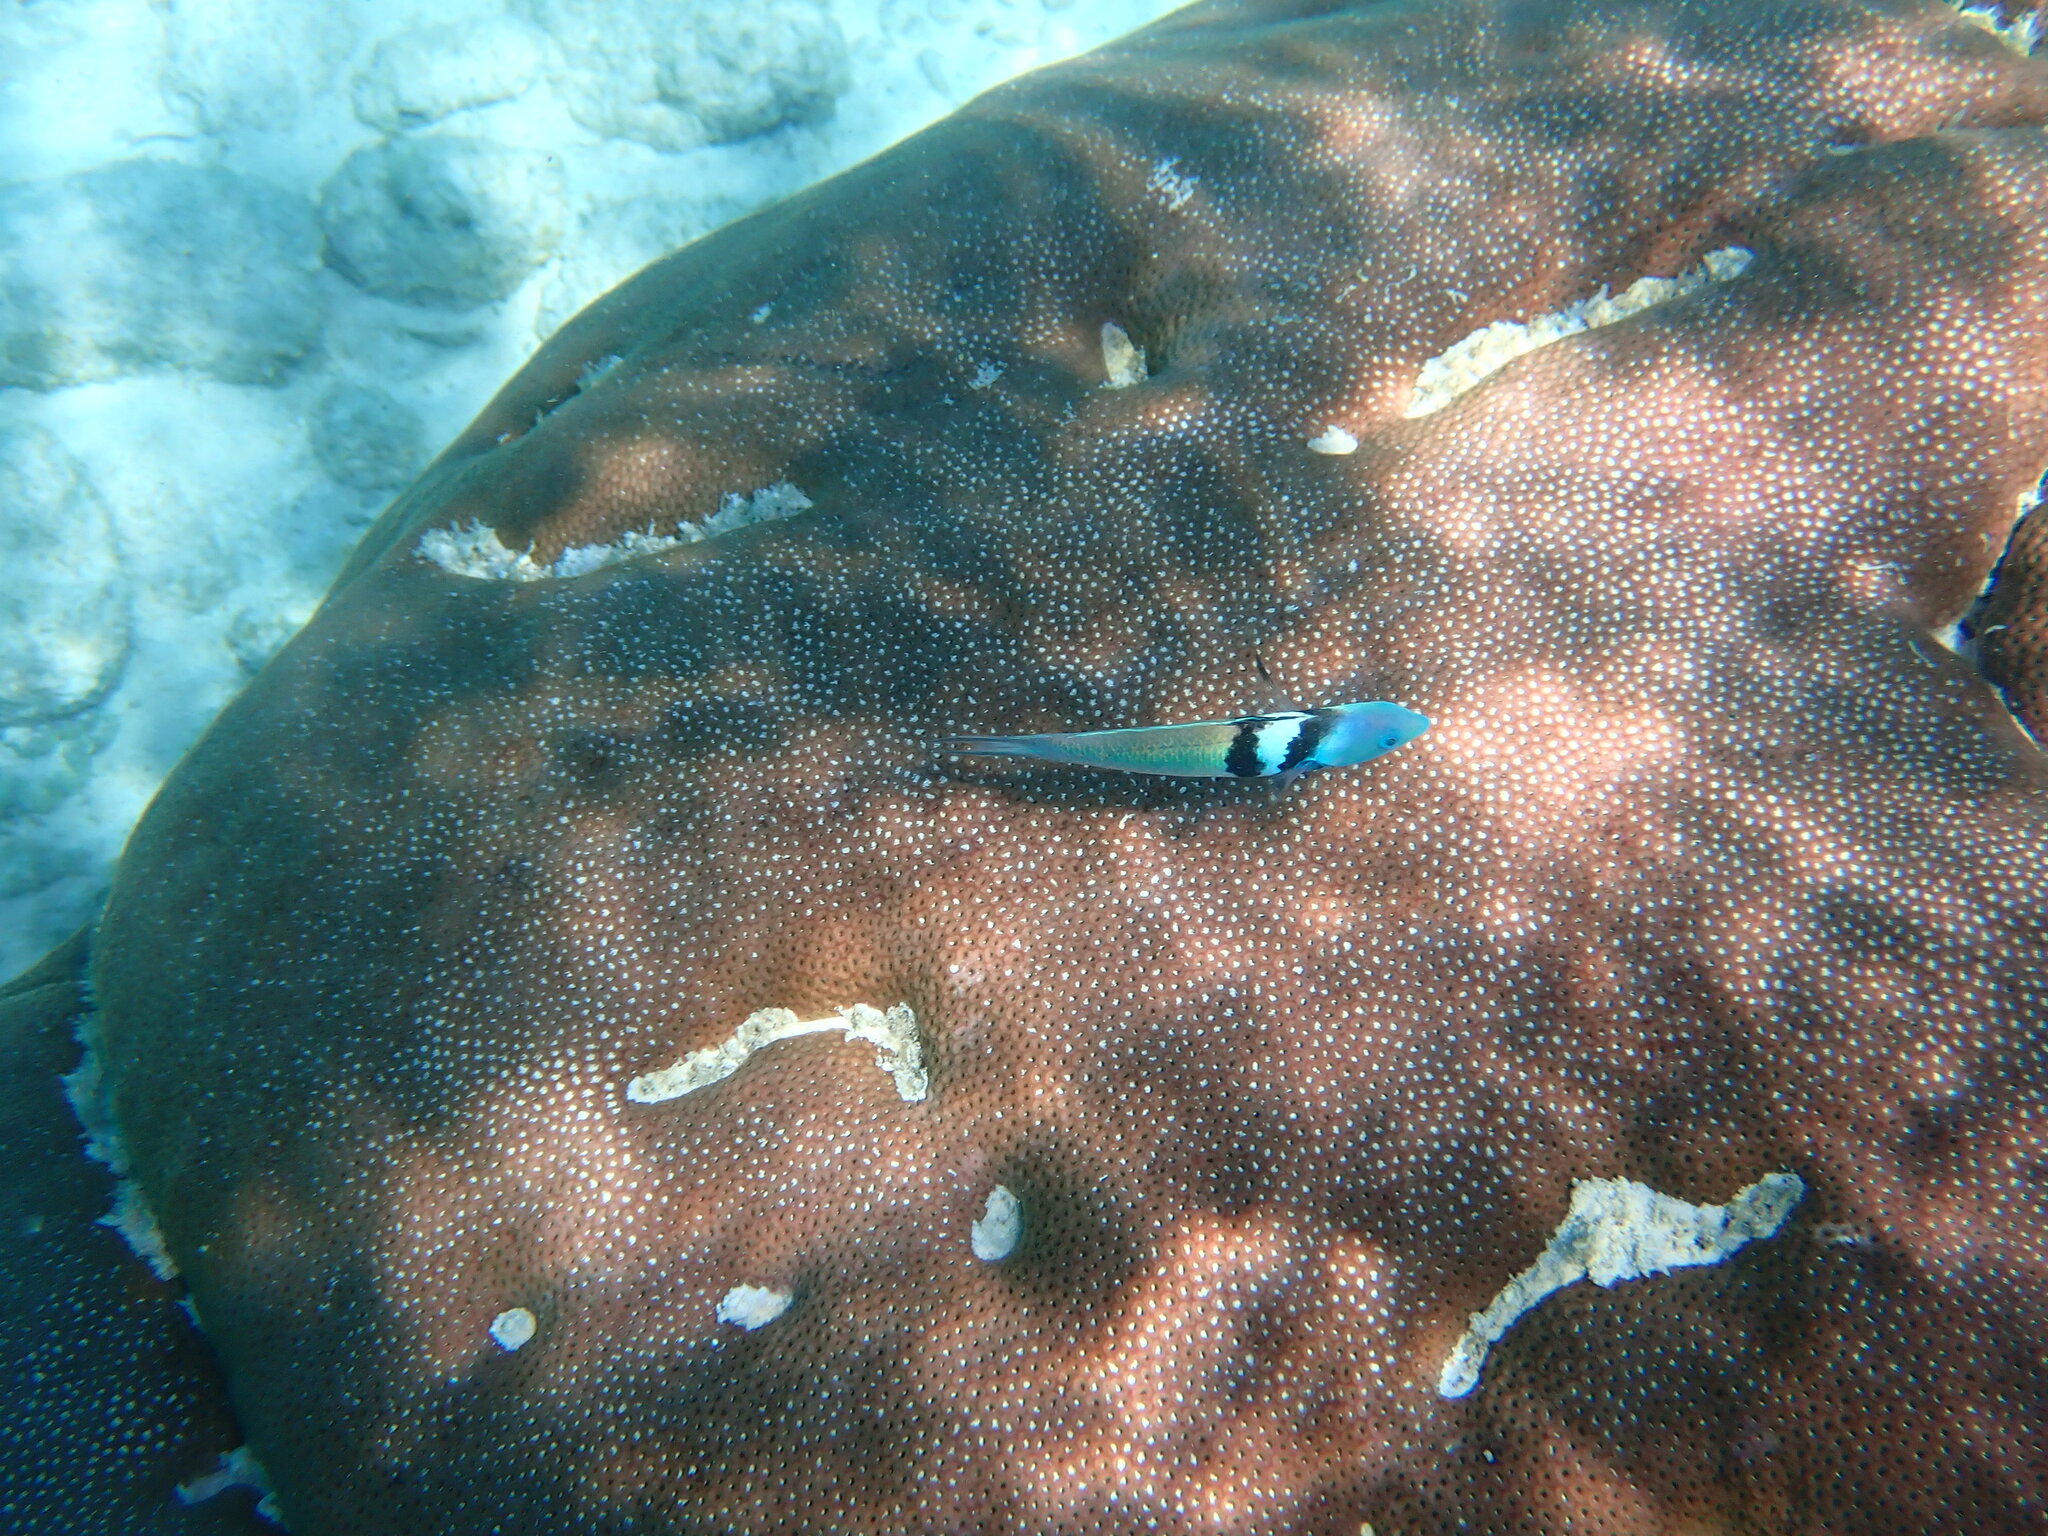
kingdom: Animalia
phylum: Chordata
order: Perciformes
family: Labridae
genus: Thalassoma
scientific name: Thalassoma bifasciatum
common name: Bluehead wrasse
